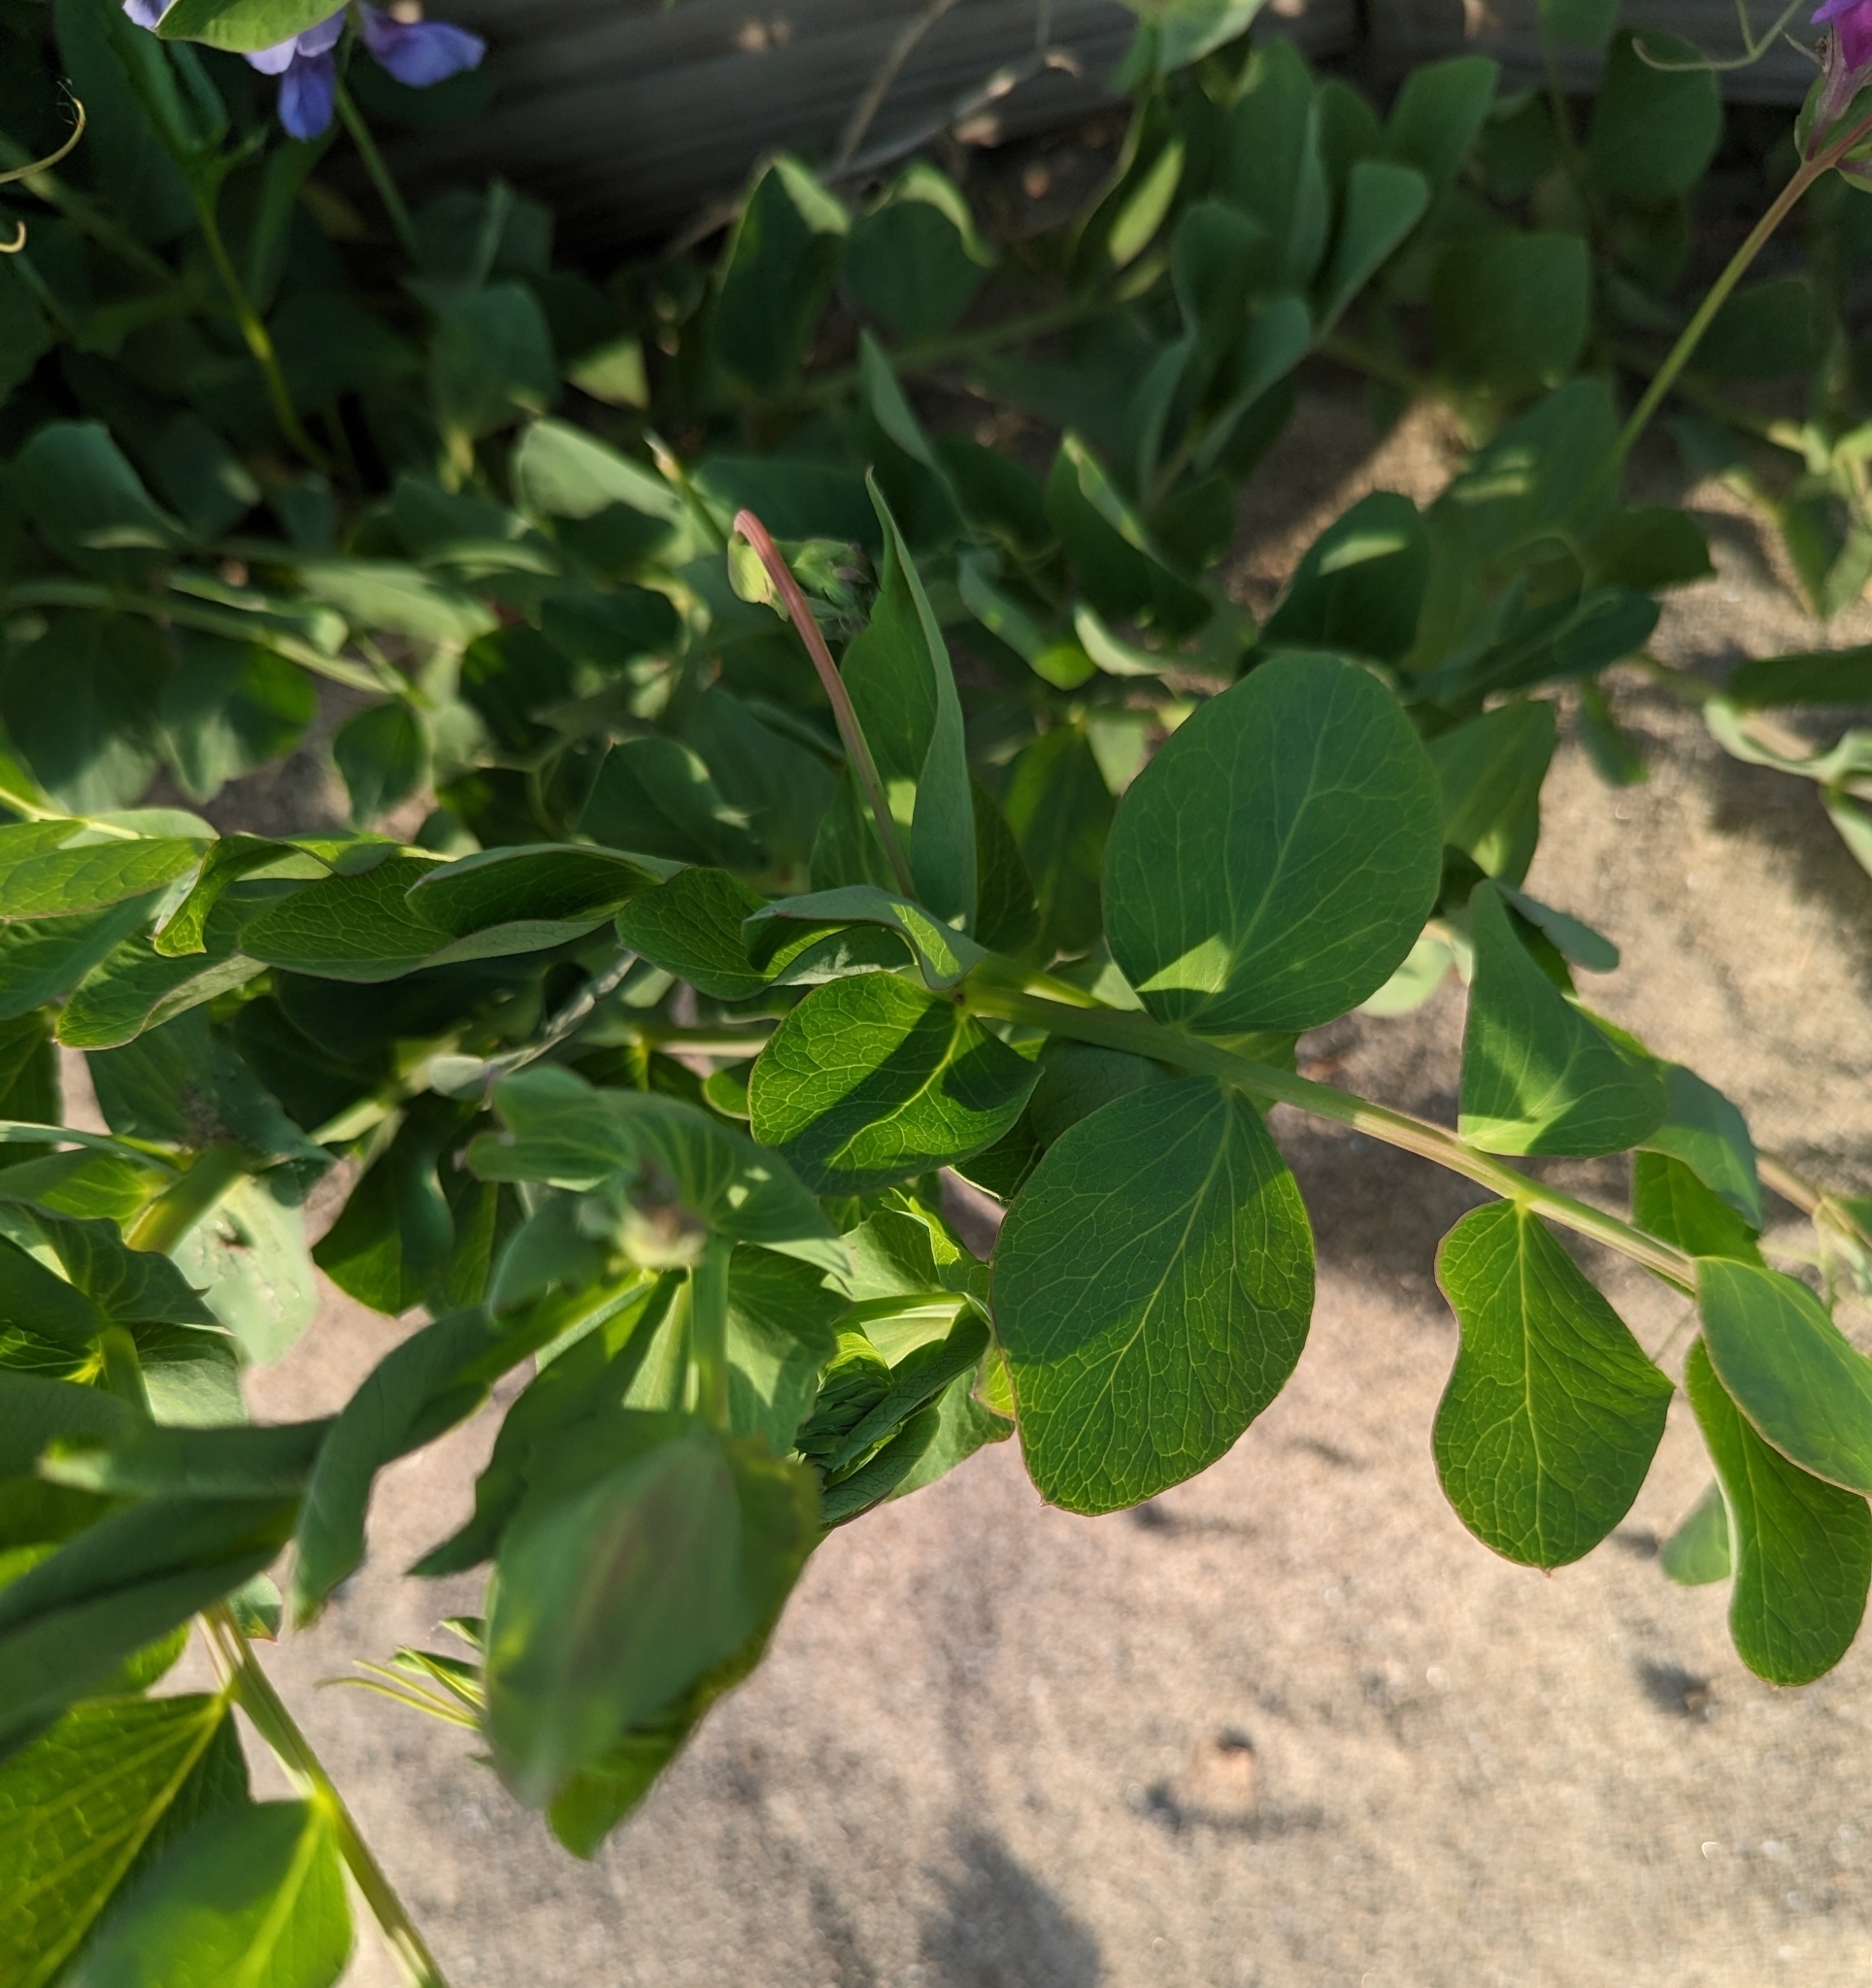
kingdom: Plantae
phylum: Tracheophyta
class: Magnoliopsida
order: Fabales
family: Fabaceae
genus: Lathyrus
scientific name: Lathyrus japonicus
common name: Sea pea
